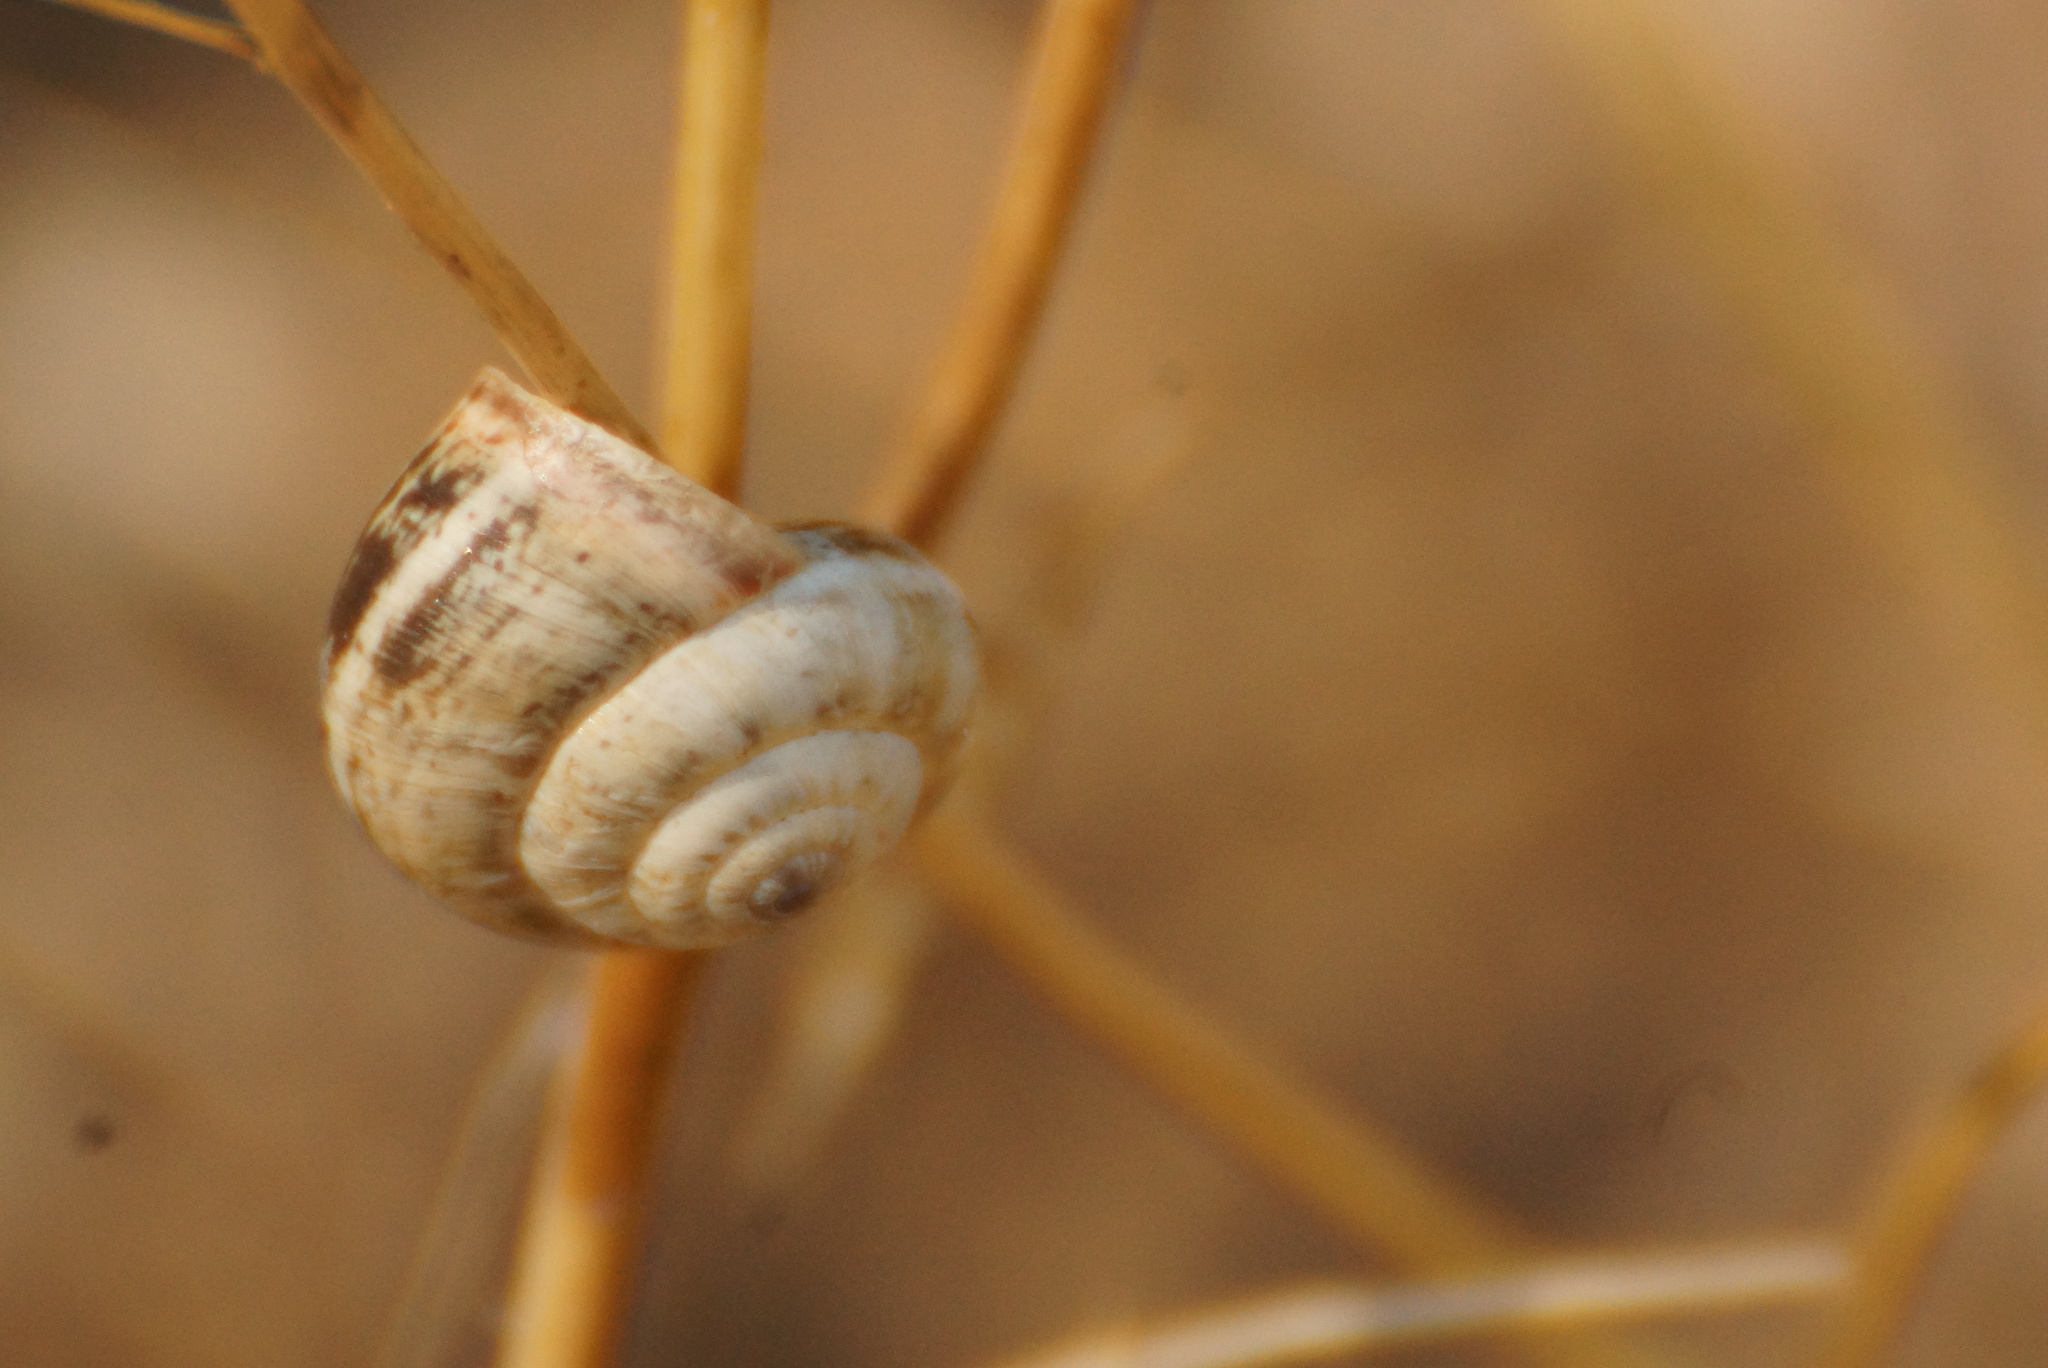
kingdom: Animalia
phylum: Mollusca
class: Gastropoda
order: Stylommatophora
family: Geomitridae
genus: Cernuella
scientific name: Cernuella virgata
